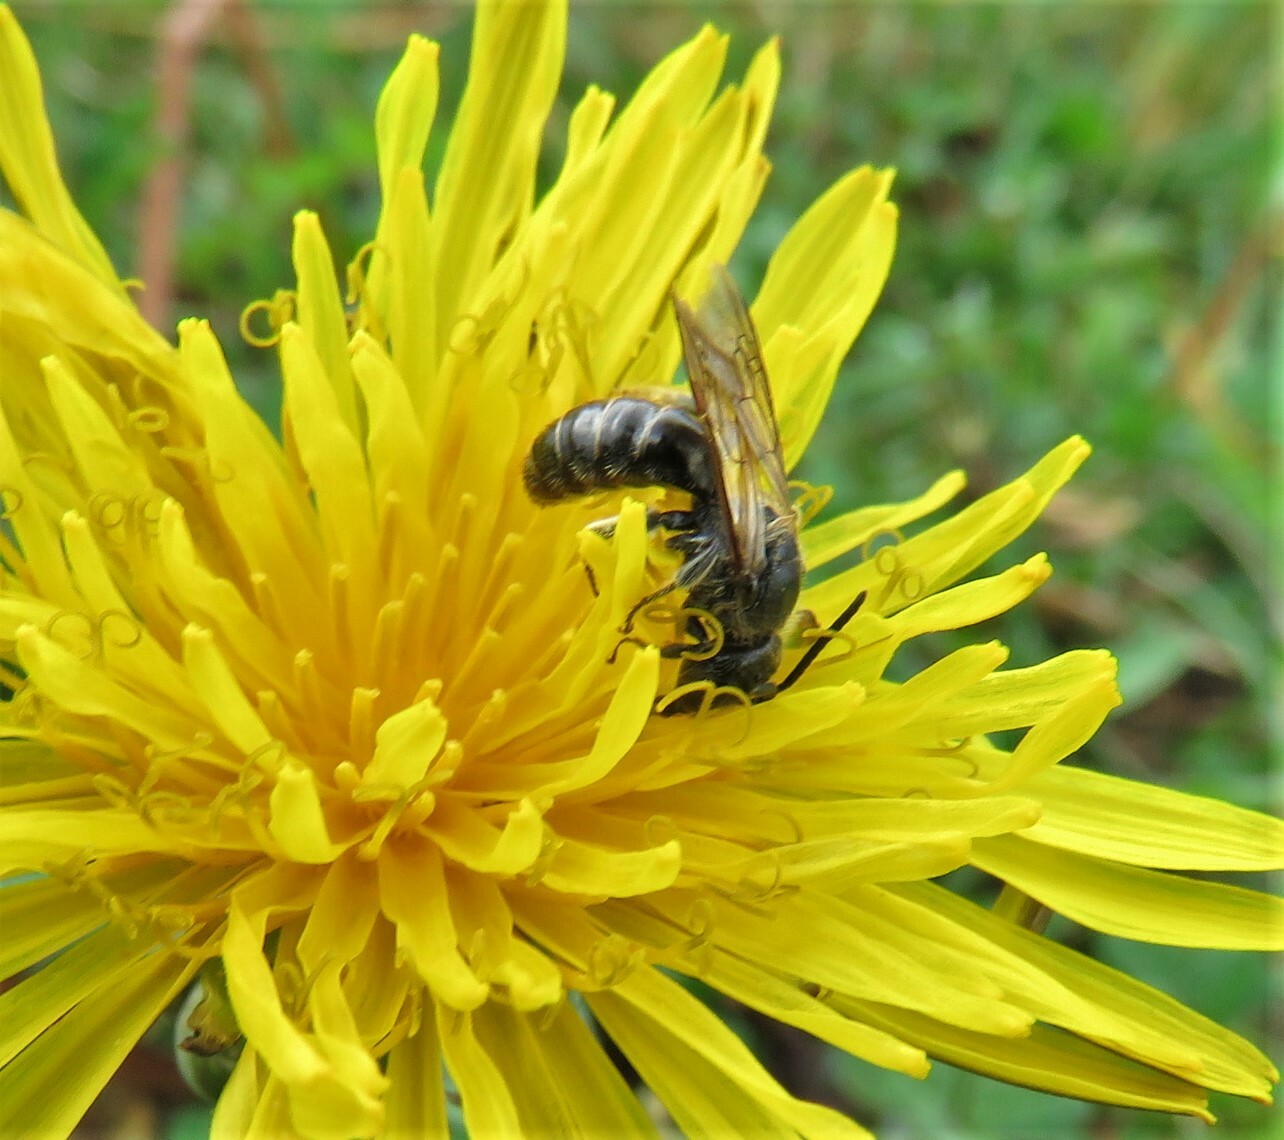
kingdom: Animalia
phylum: Arthropoda
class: Insecta
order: Hymenoptera
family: Halictidae
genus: Lasioglossum
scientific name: Lasioglossum
